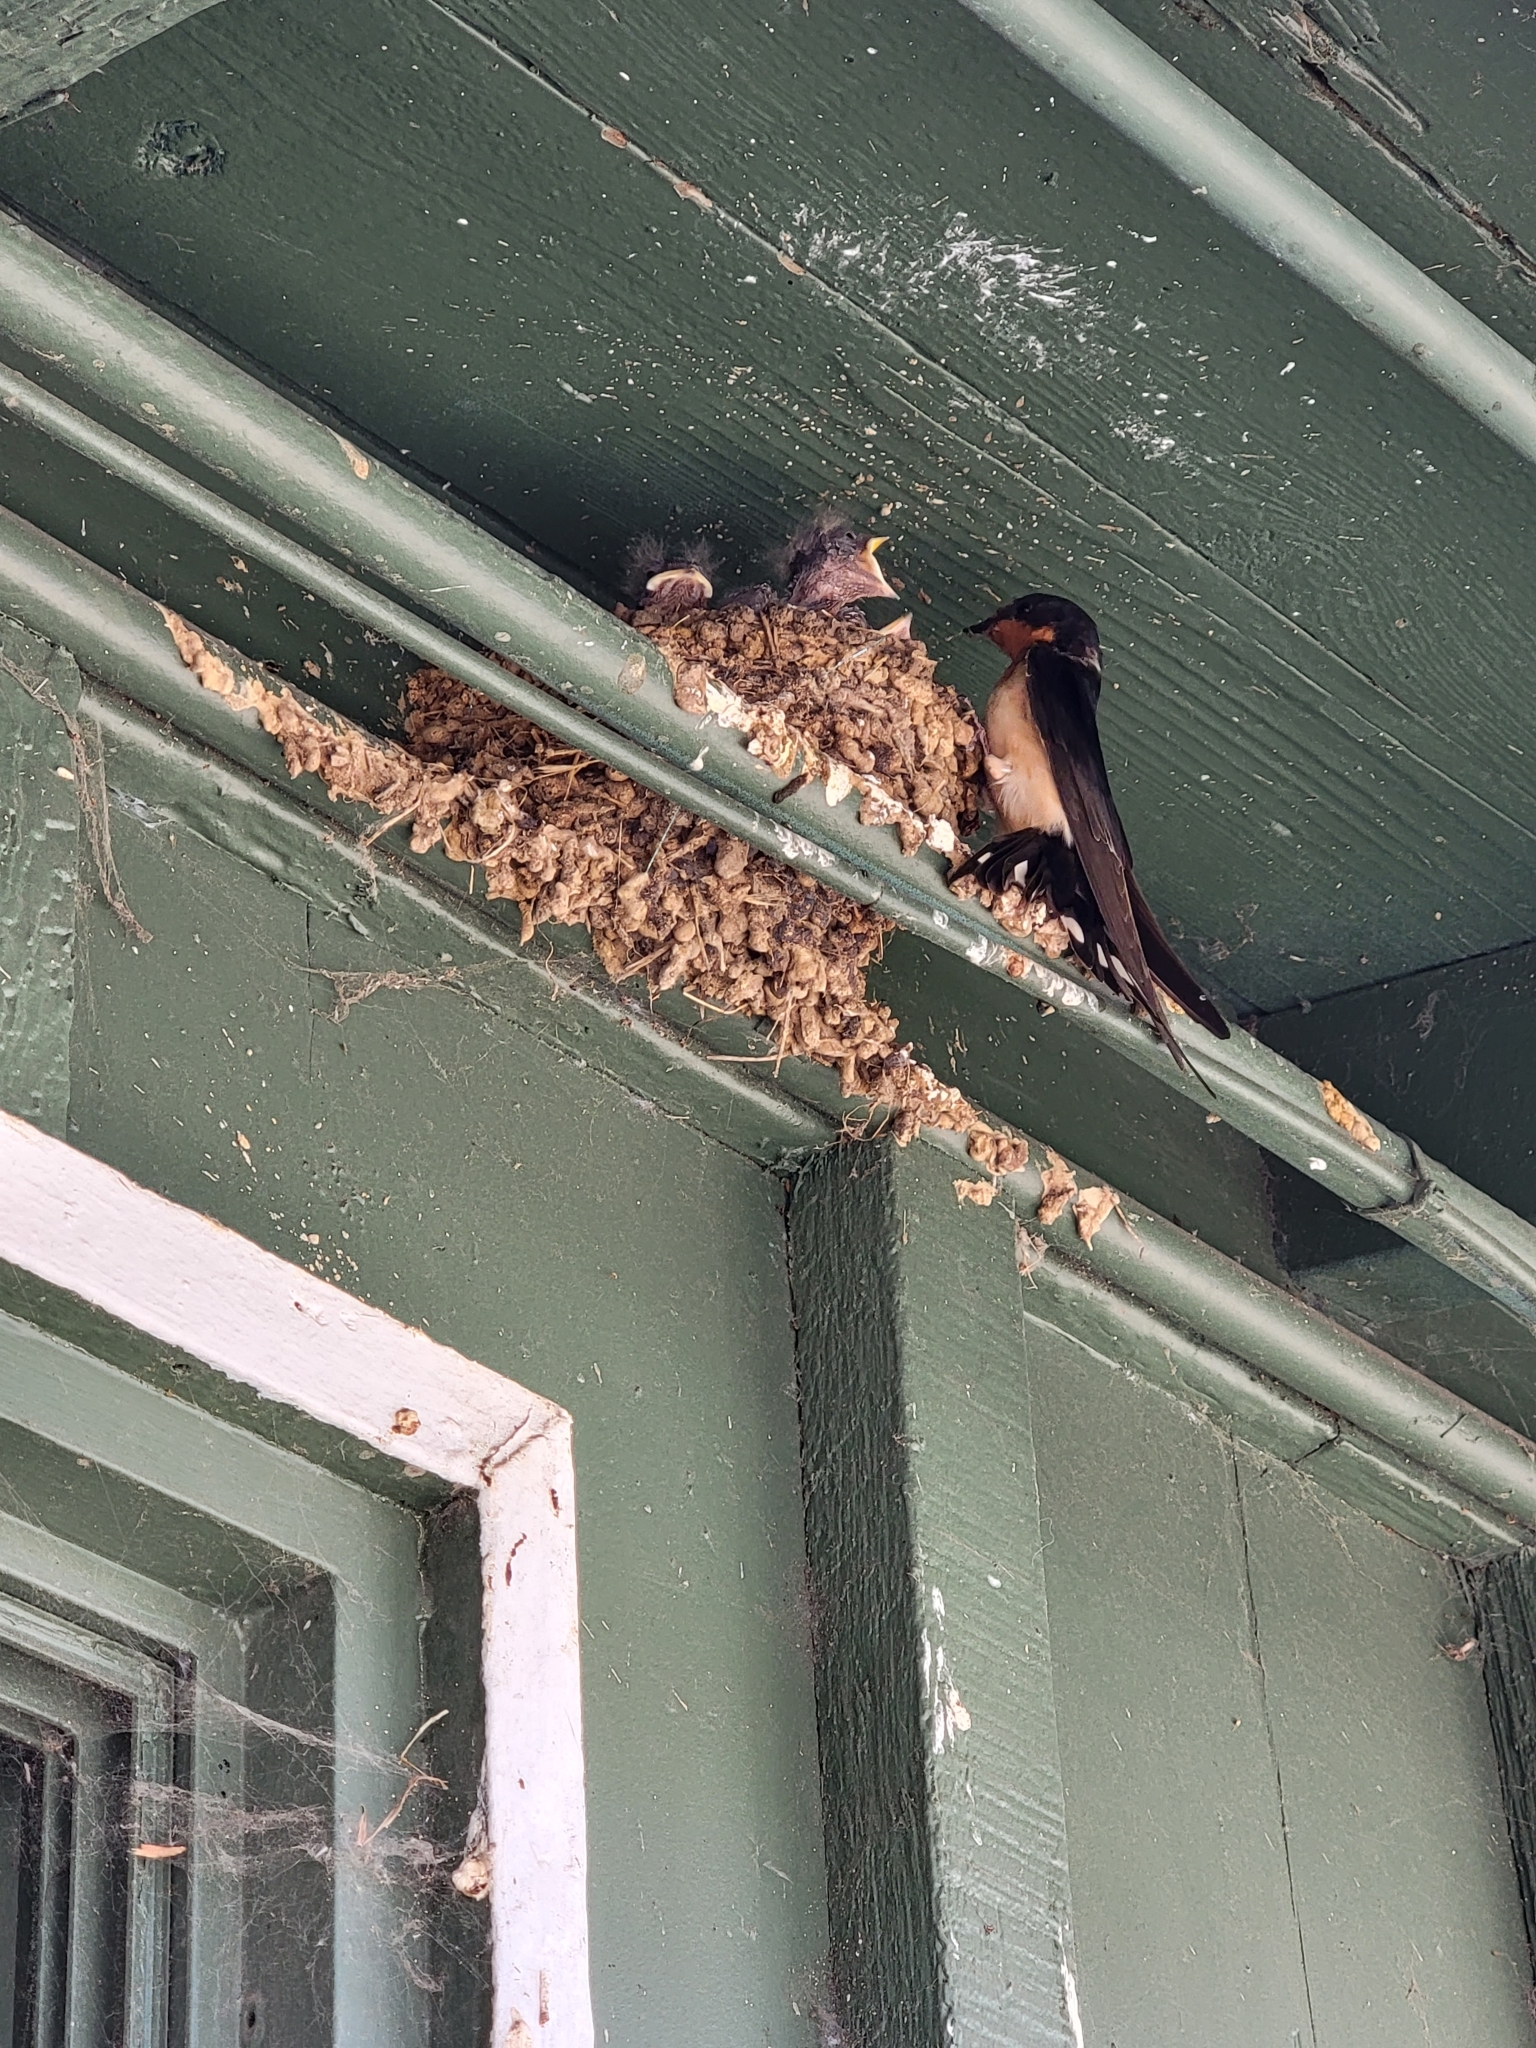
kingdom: Animalia
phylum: Chordata
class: Aves
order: Passeriformes
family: Hirundinidae
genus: Hirundo
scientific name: Hirundo rustica
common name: Barn swallow
